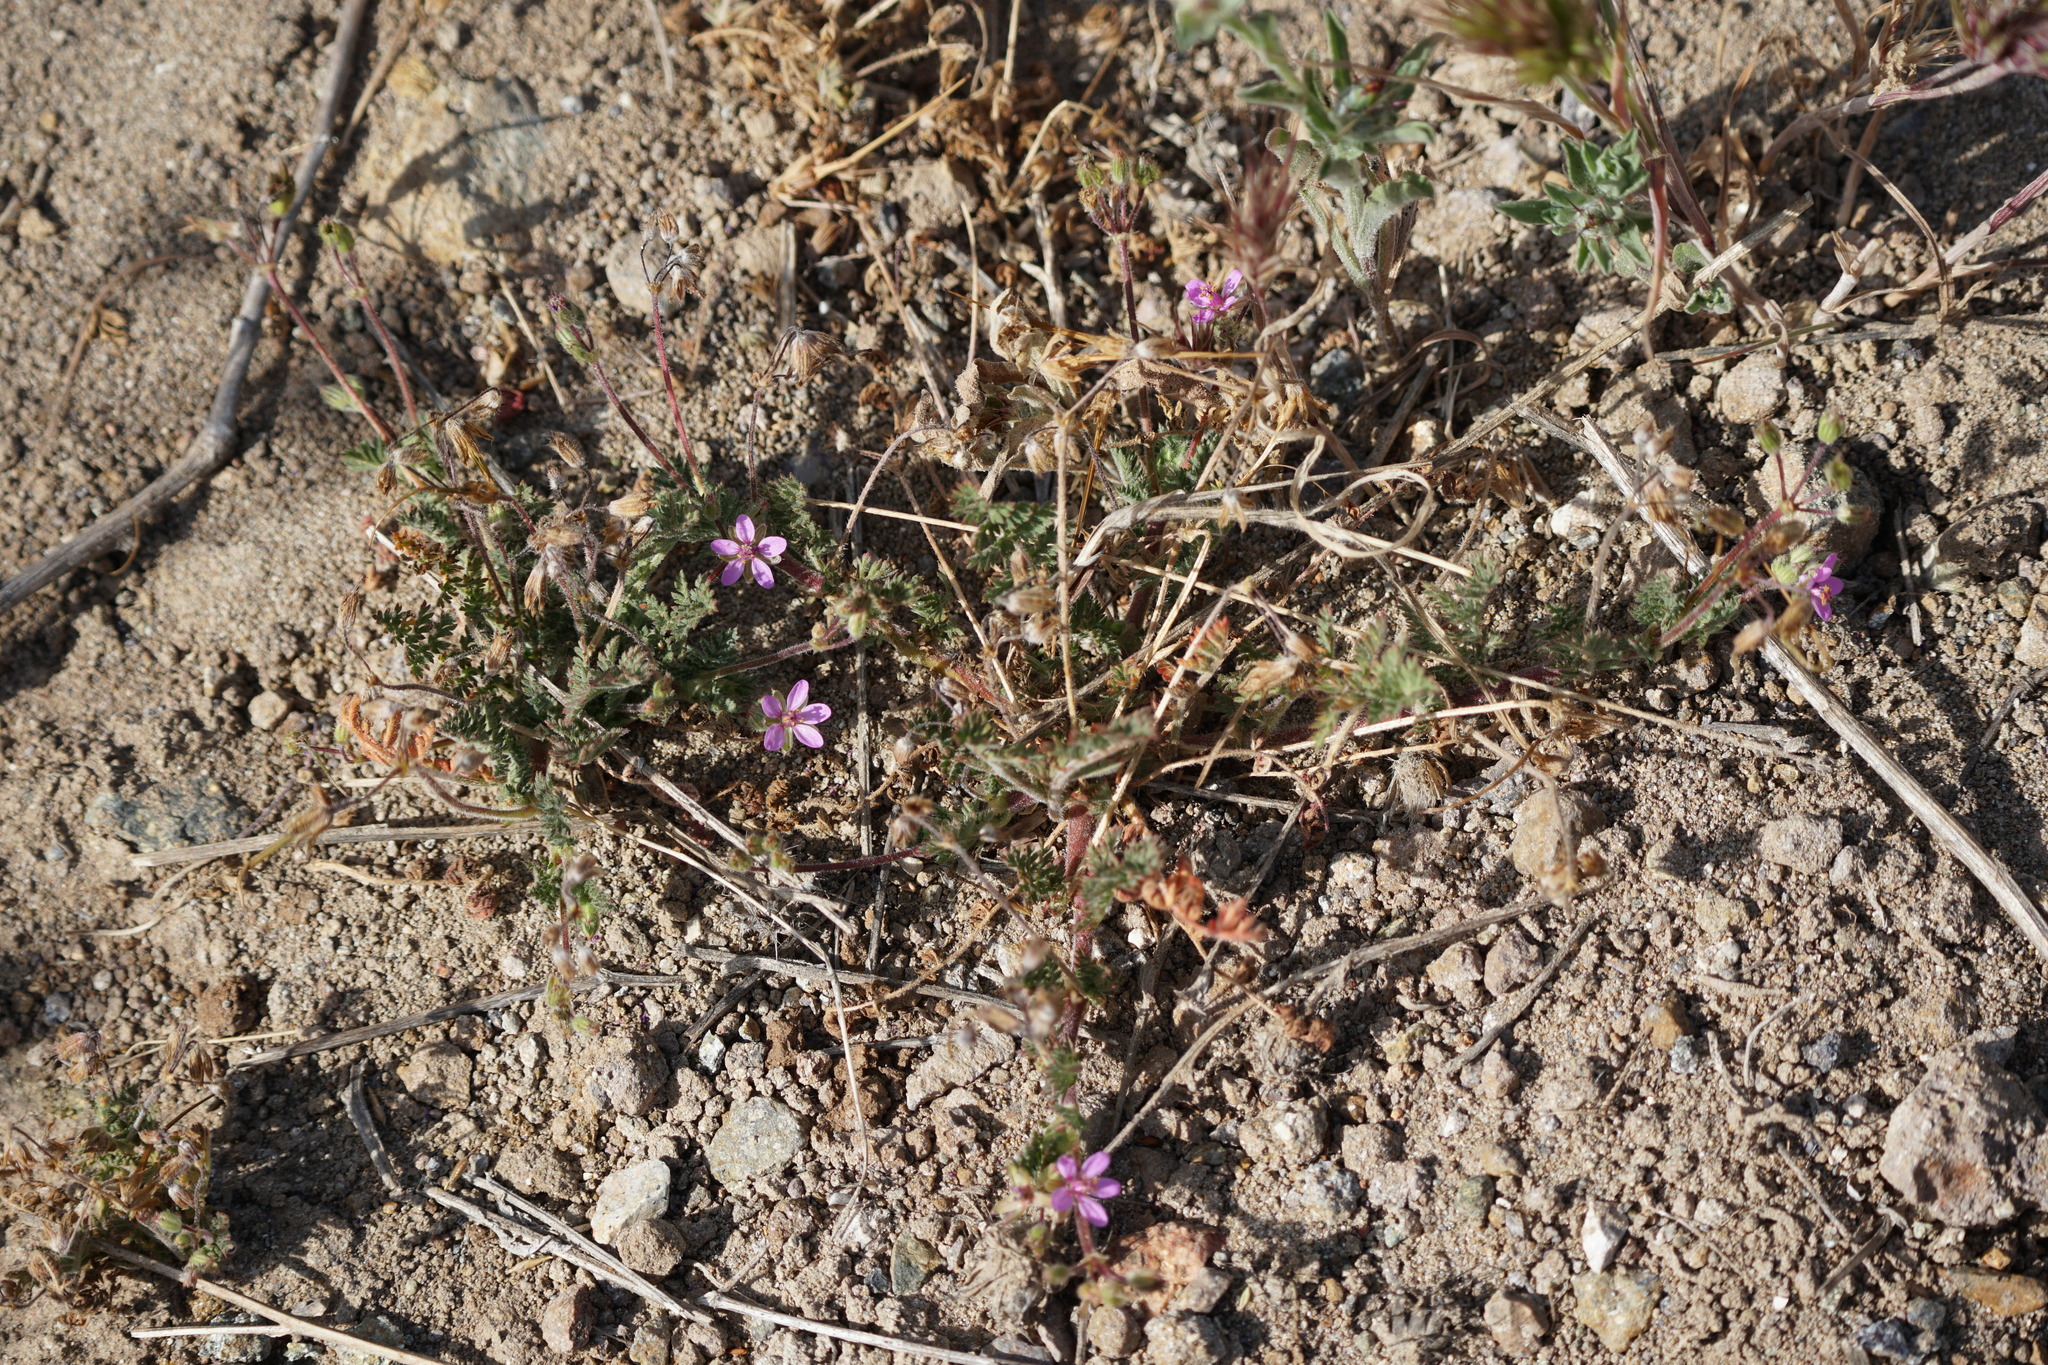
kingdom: Plantae
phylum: Tracheophyta
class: Magnoliopsida
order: Geraniales
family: Geraniaceae
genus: Erodium
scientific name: Erodium cicutarium
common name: Common stork's-bill
